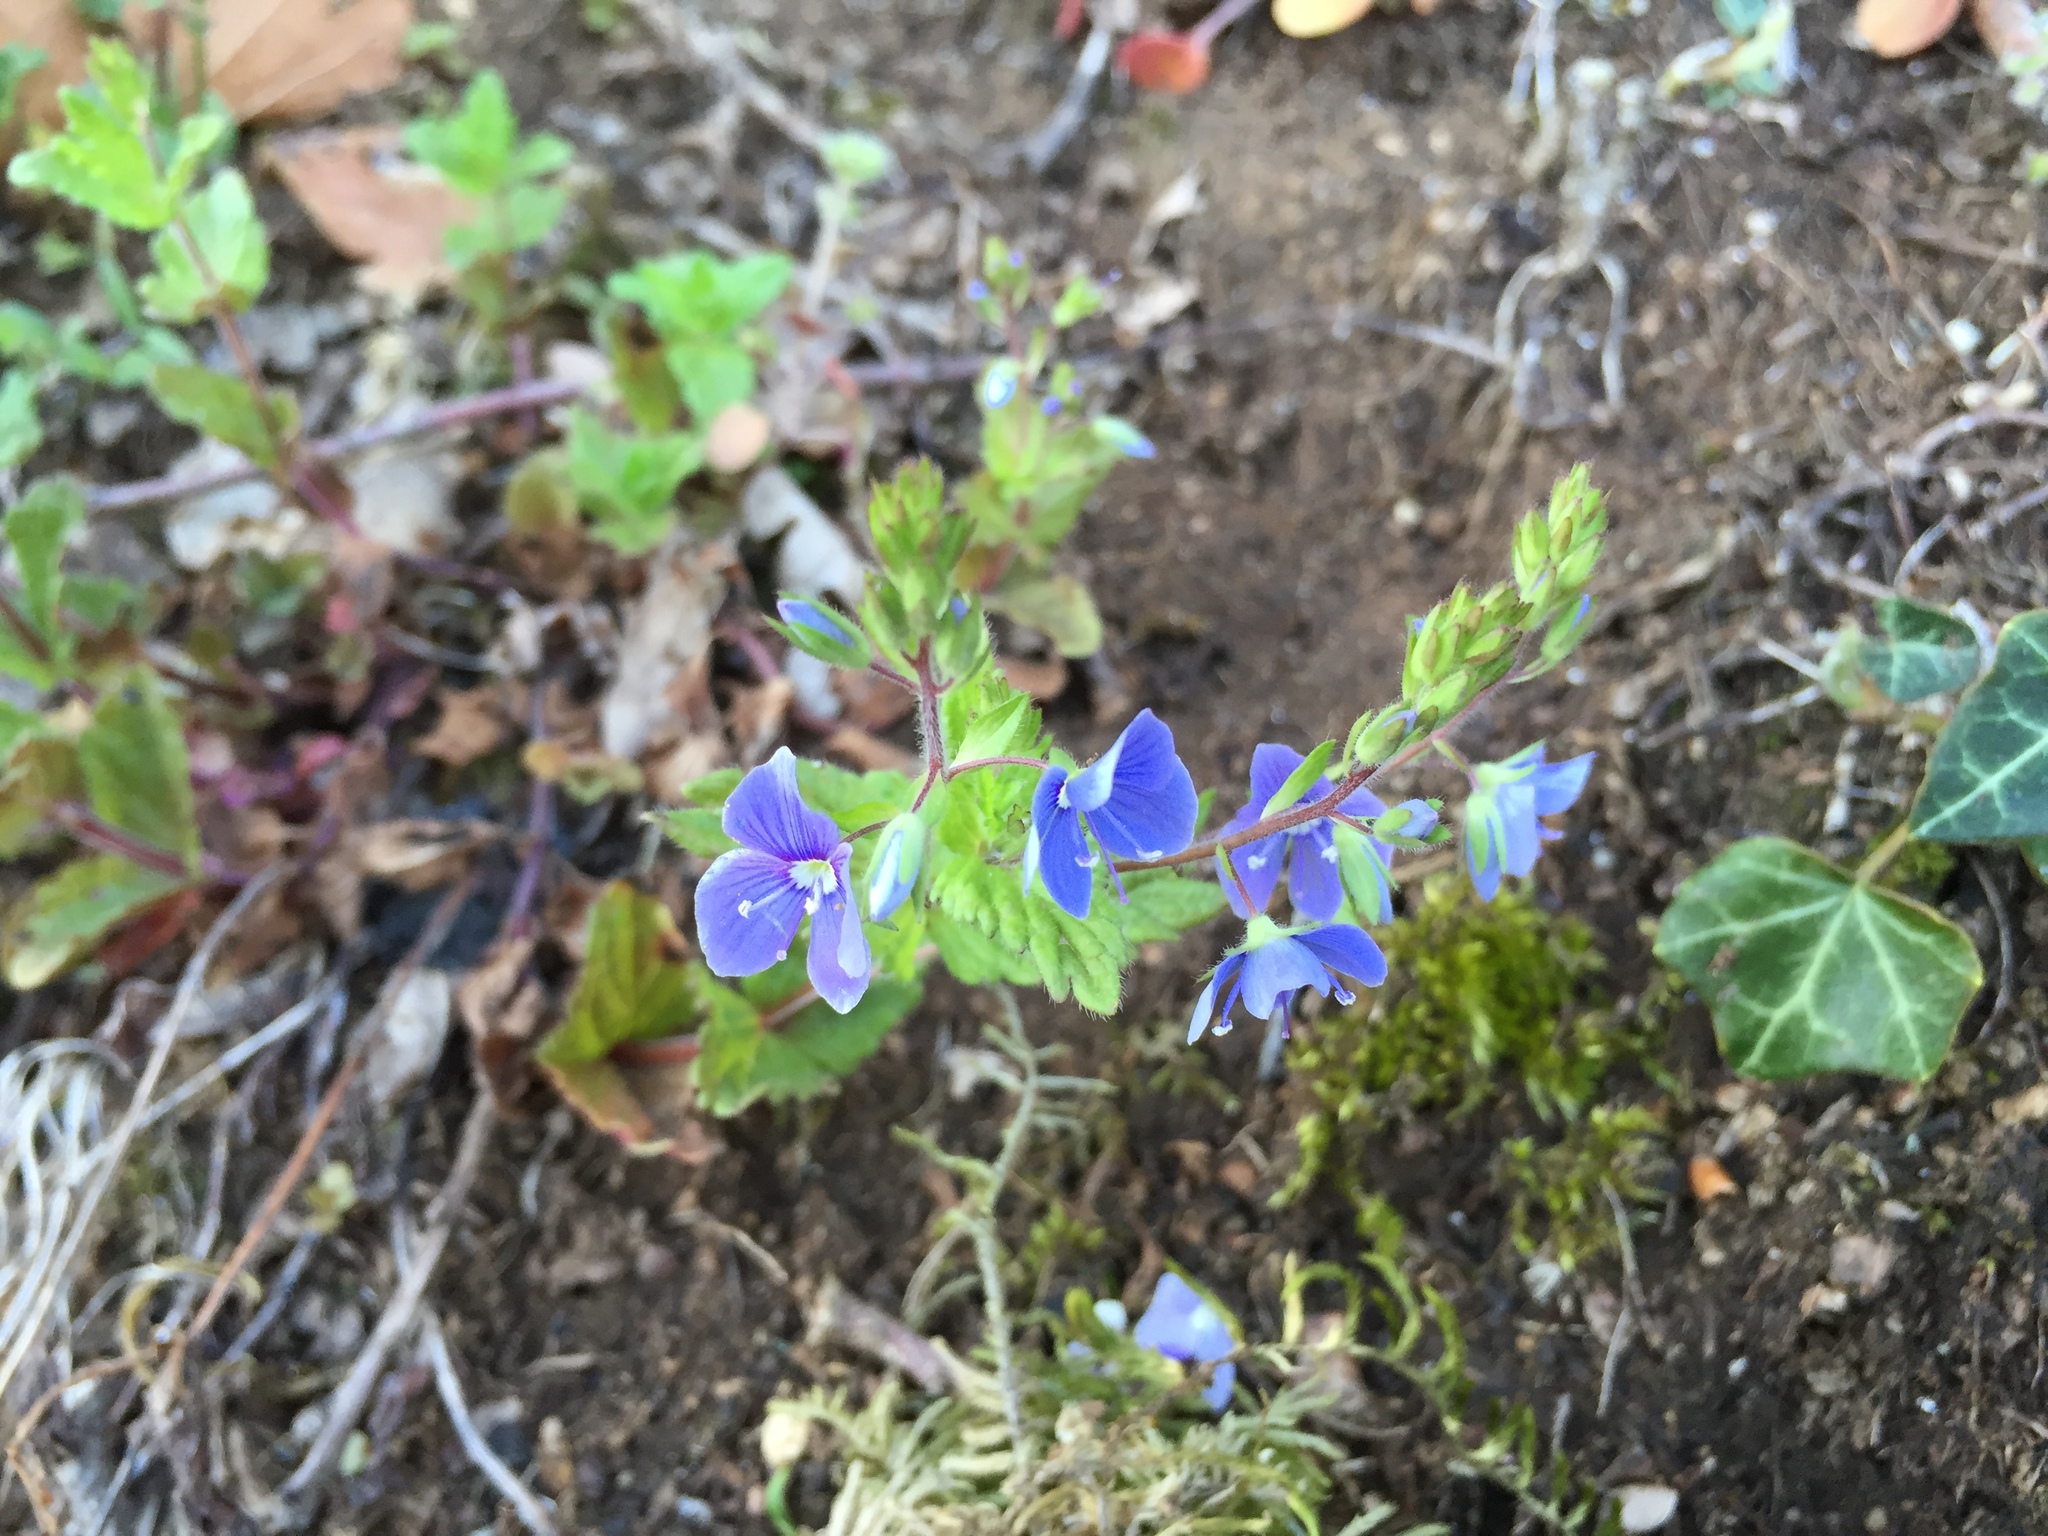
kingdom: Plantae
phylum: Tracheophyta
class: Magnoliopsida
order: Lamiales
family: Plantaginaceae
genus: Veronica
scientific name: Veronica chamaedrys
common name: Germander speedwell
